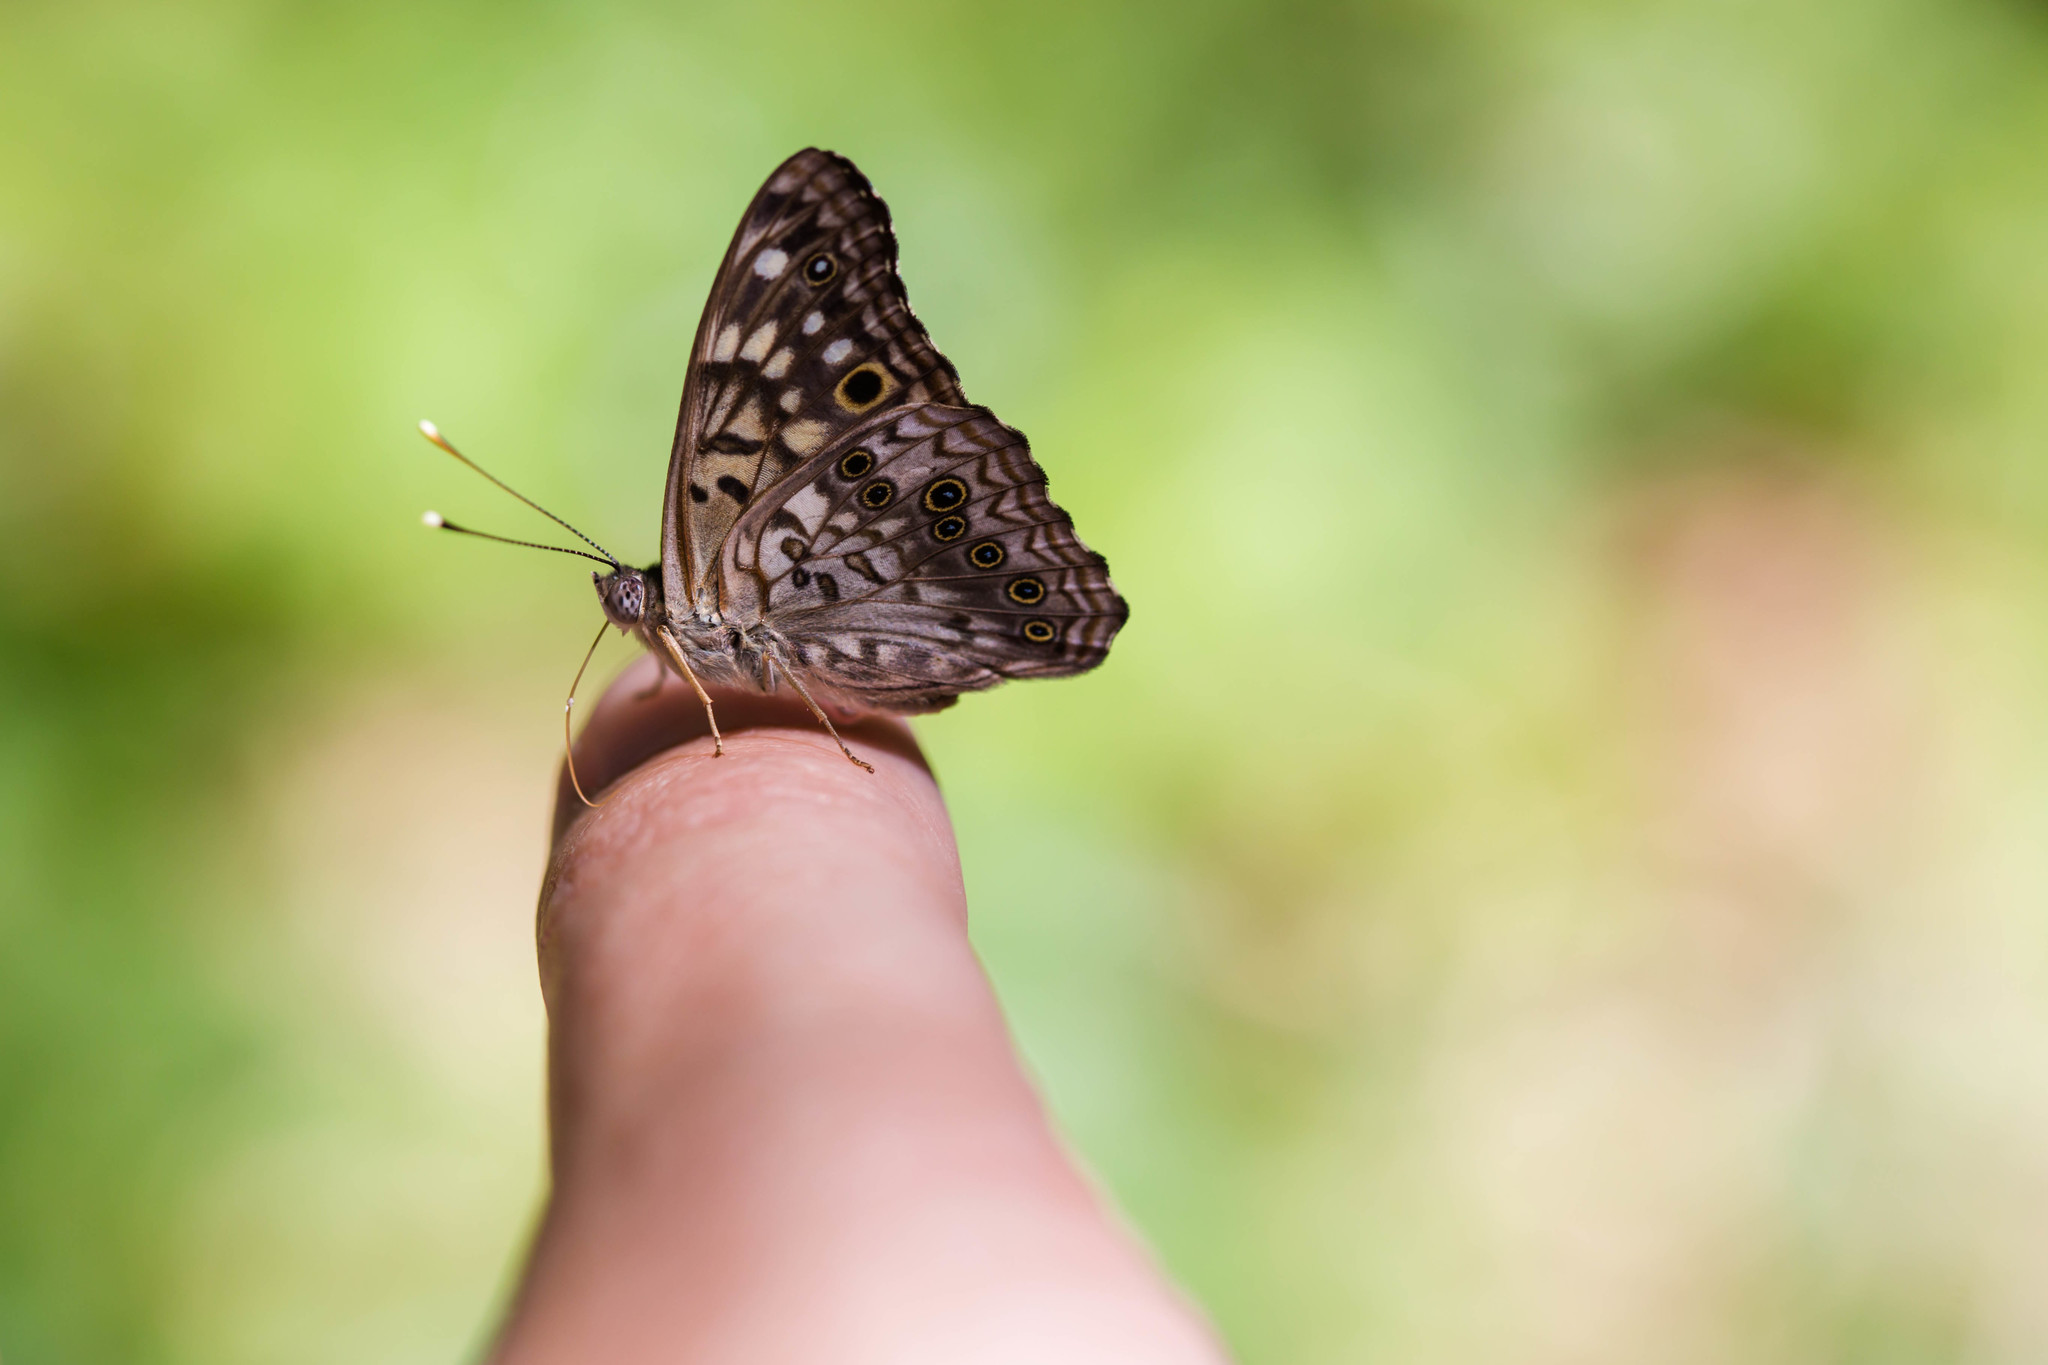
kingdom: Animalia
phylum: Arthropoda
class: Insecta
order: Lepidoptera
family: Nymphalidae
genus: Asterocampa
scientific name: Asterocampa celtis
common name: Hackberry emperor
